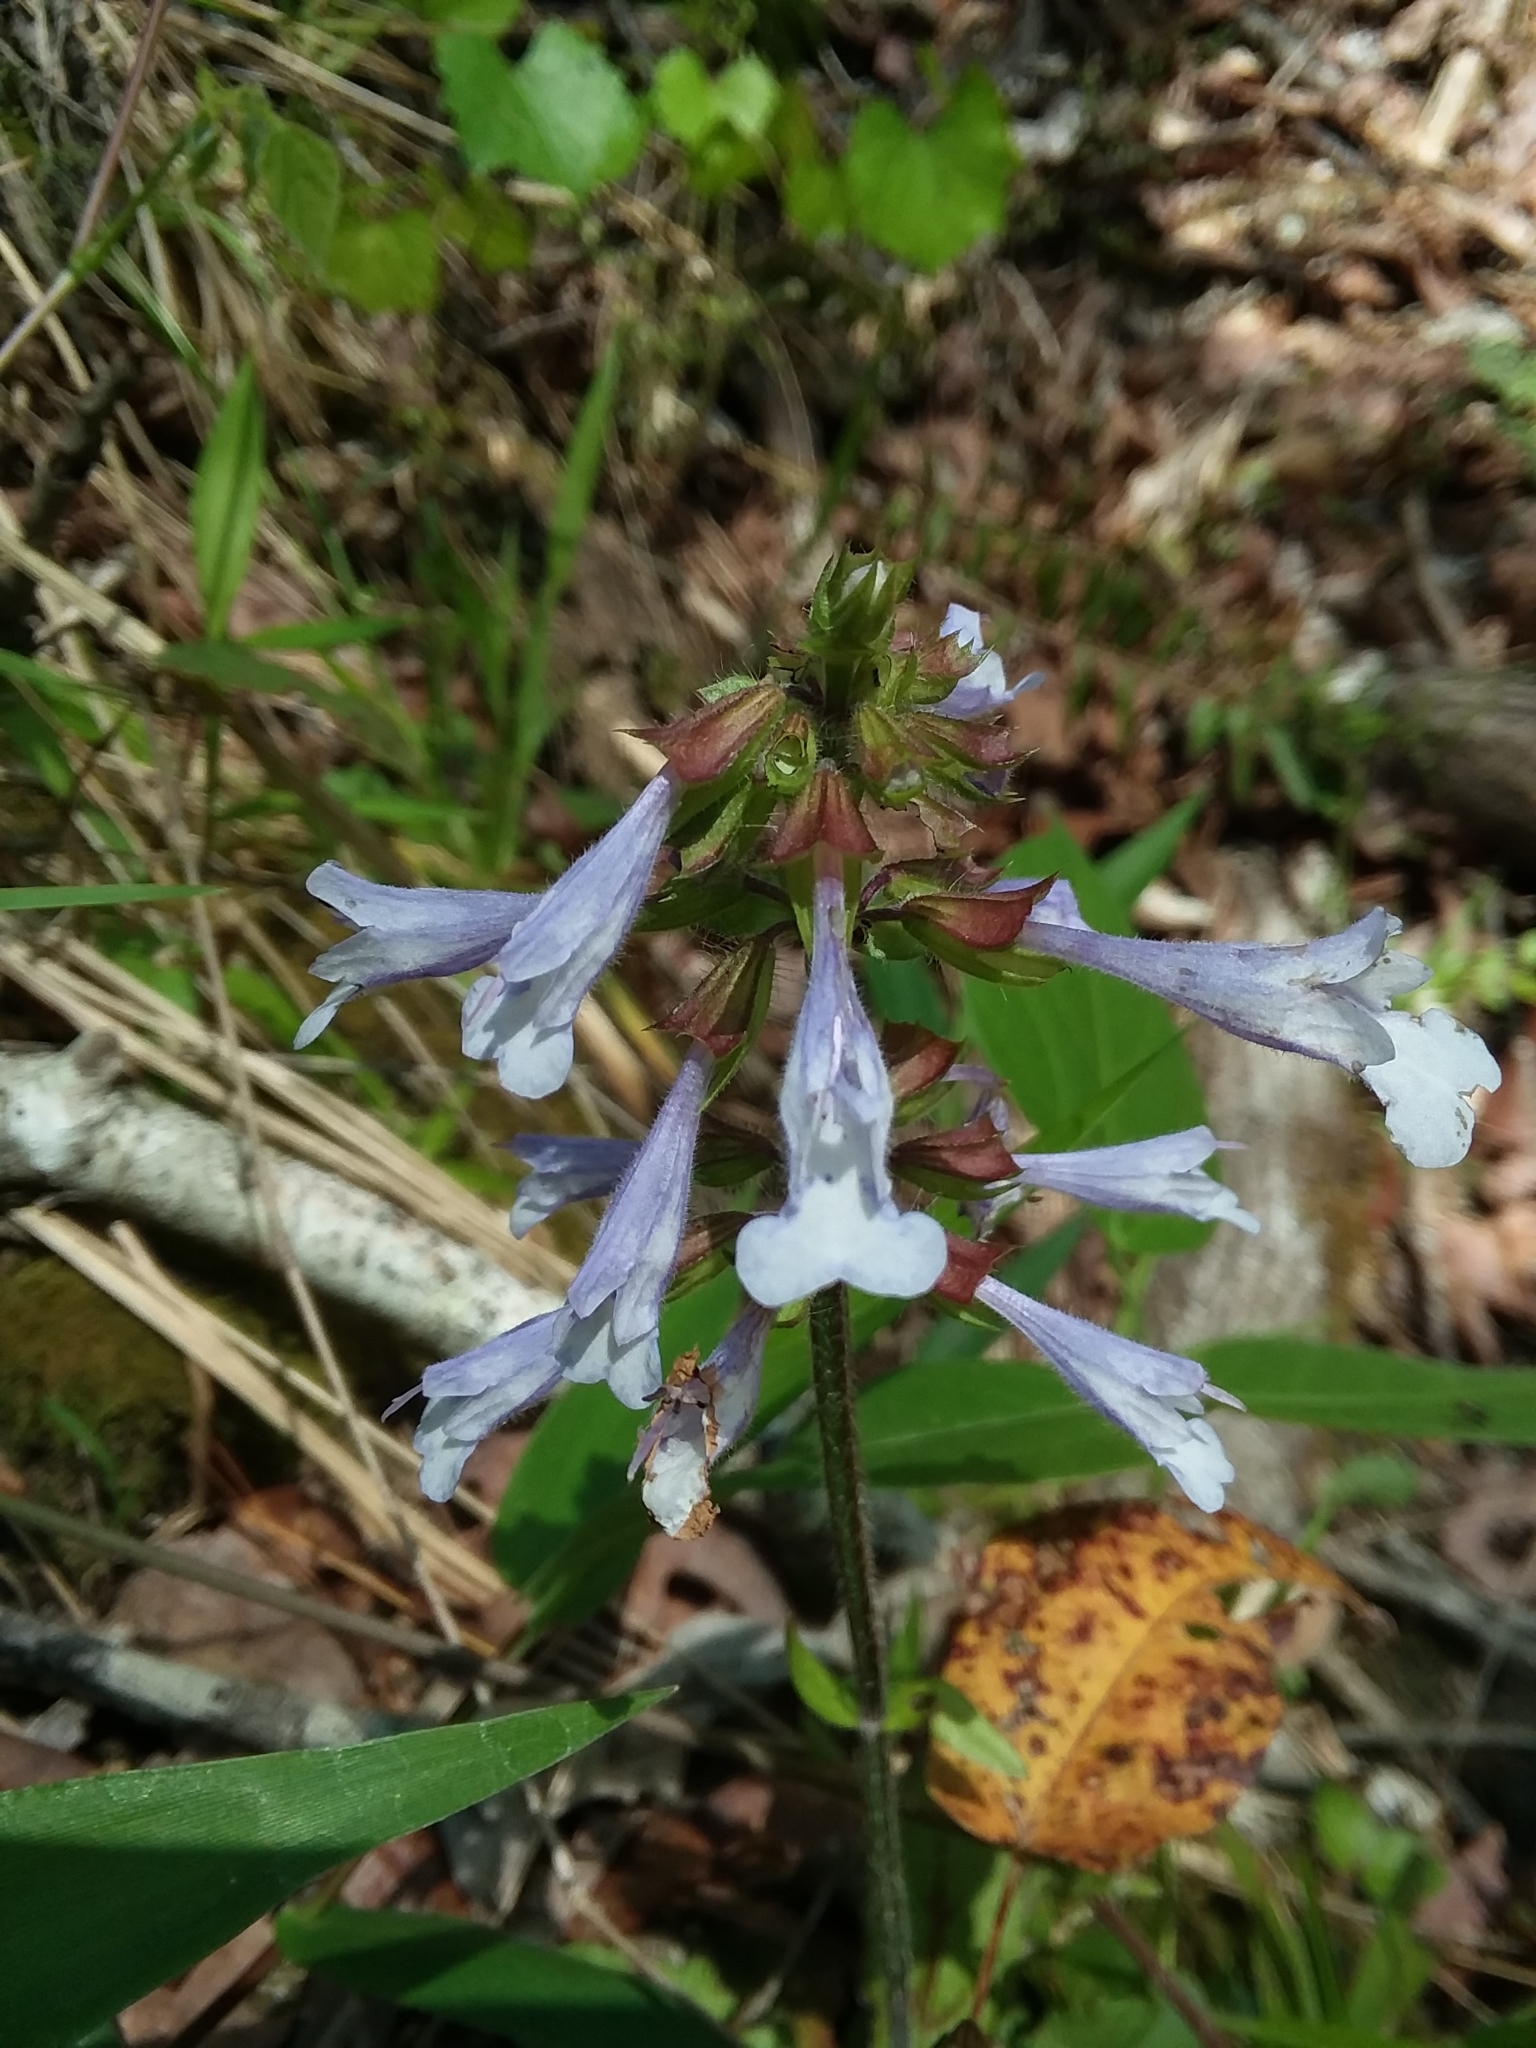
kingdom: Plantae
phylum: Tracheophyta
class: Magnoliopsida
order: Lamiales
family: Lamiaceae
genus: Salvia
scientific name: Salvia lyrata
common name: Cancerweed
